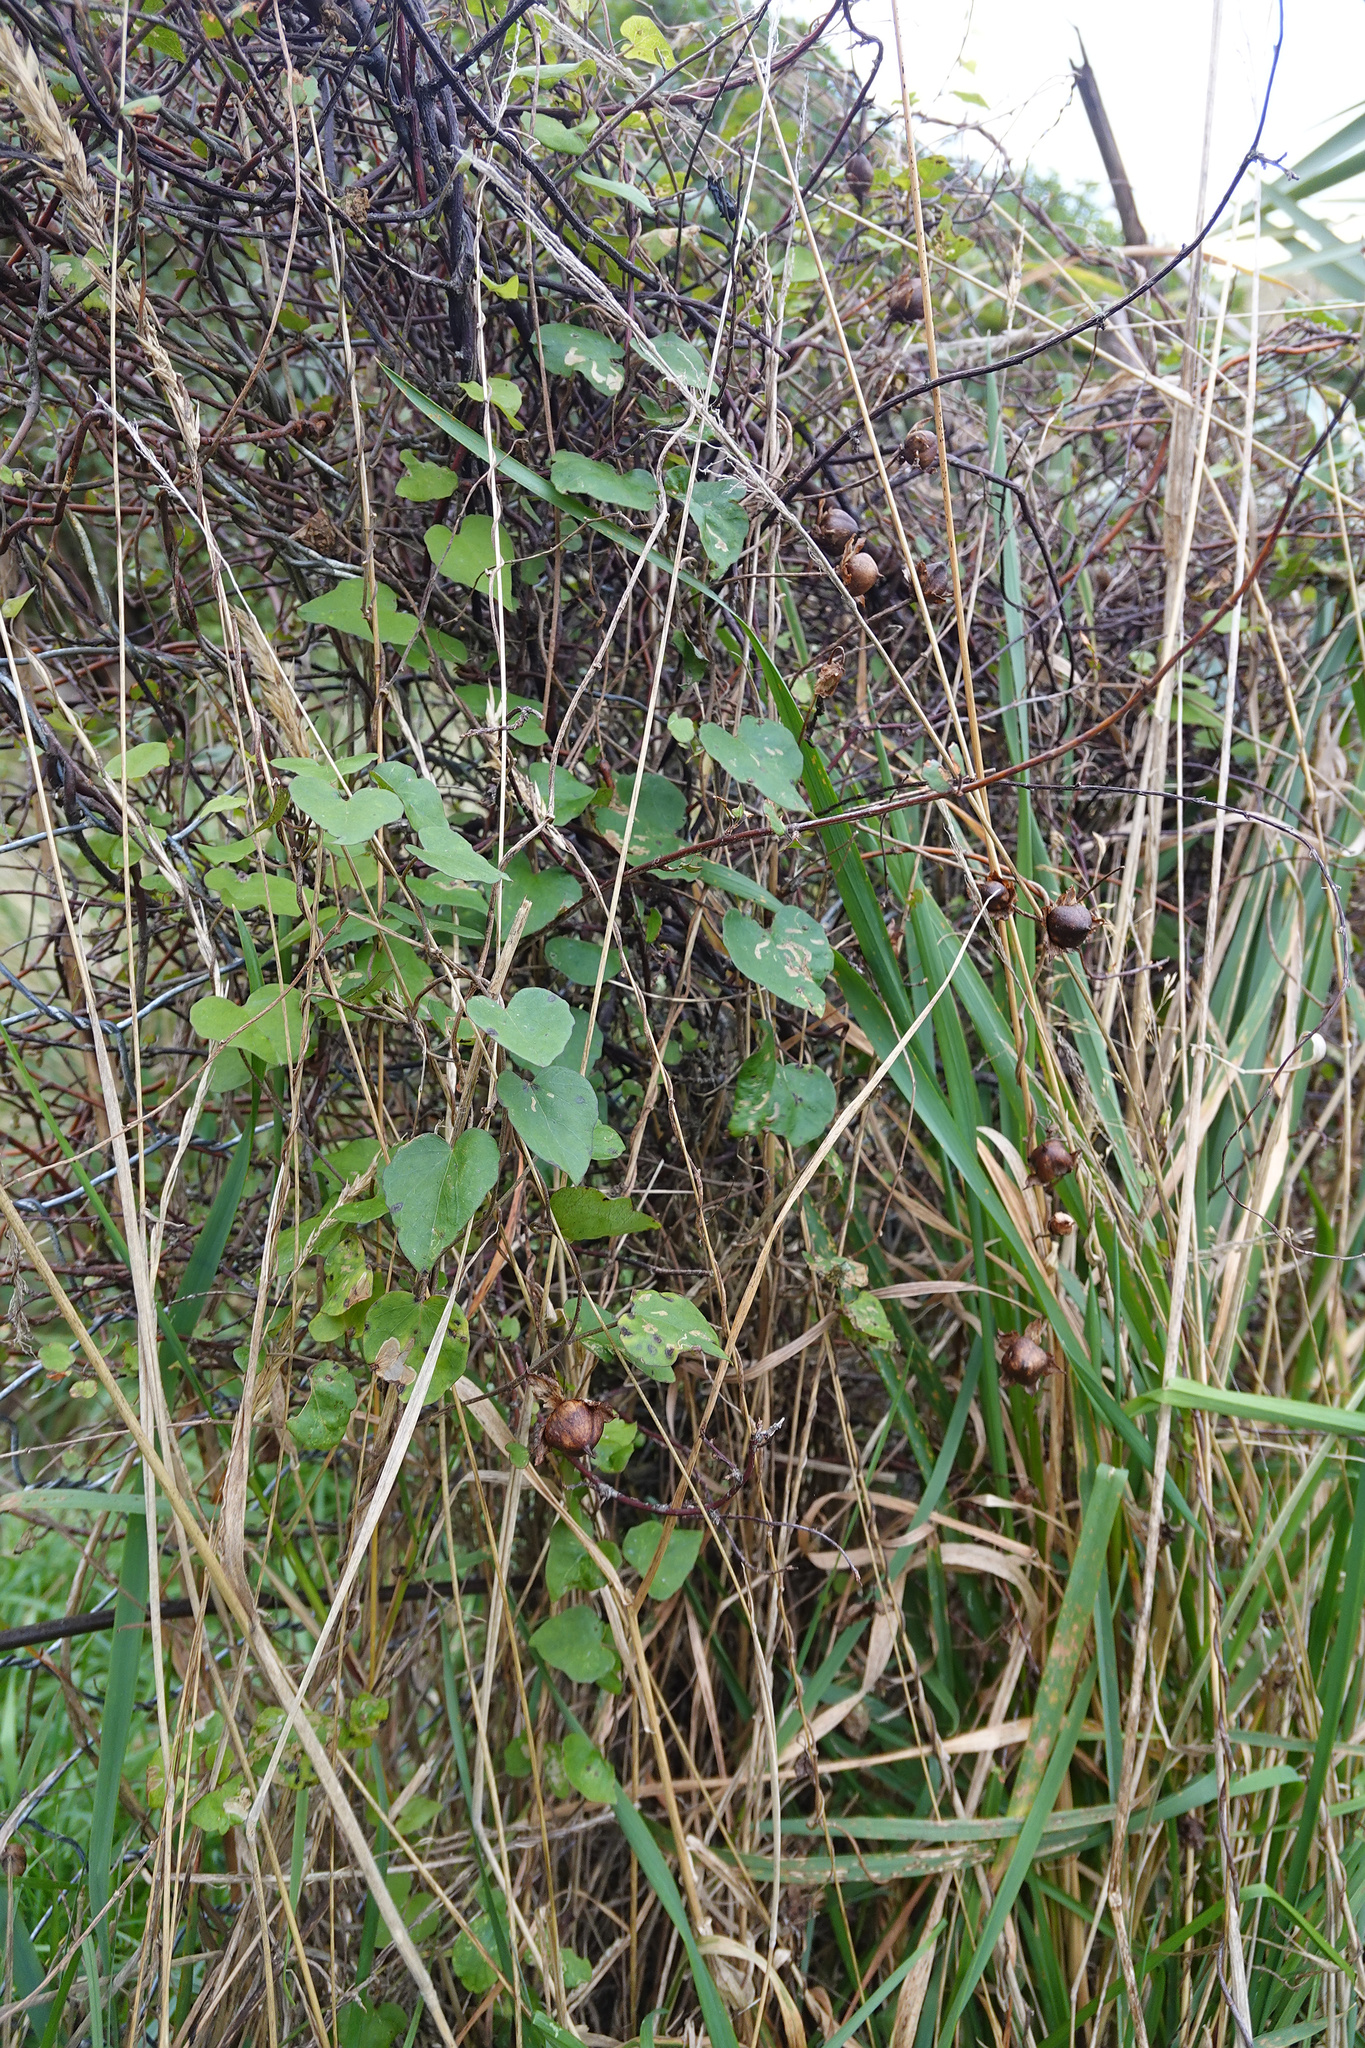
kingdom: Plantae
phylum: Tracheophyta
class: Magnoliopsida
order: Solanales
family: Convolvulaceae
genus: Calystegia
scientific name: Calystegia tuguriorum
